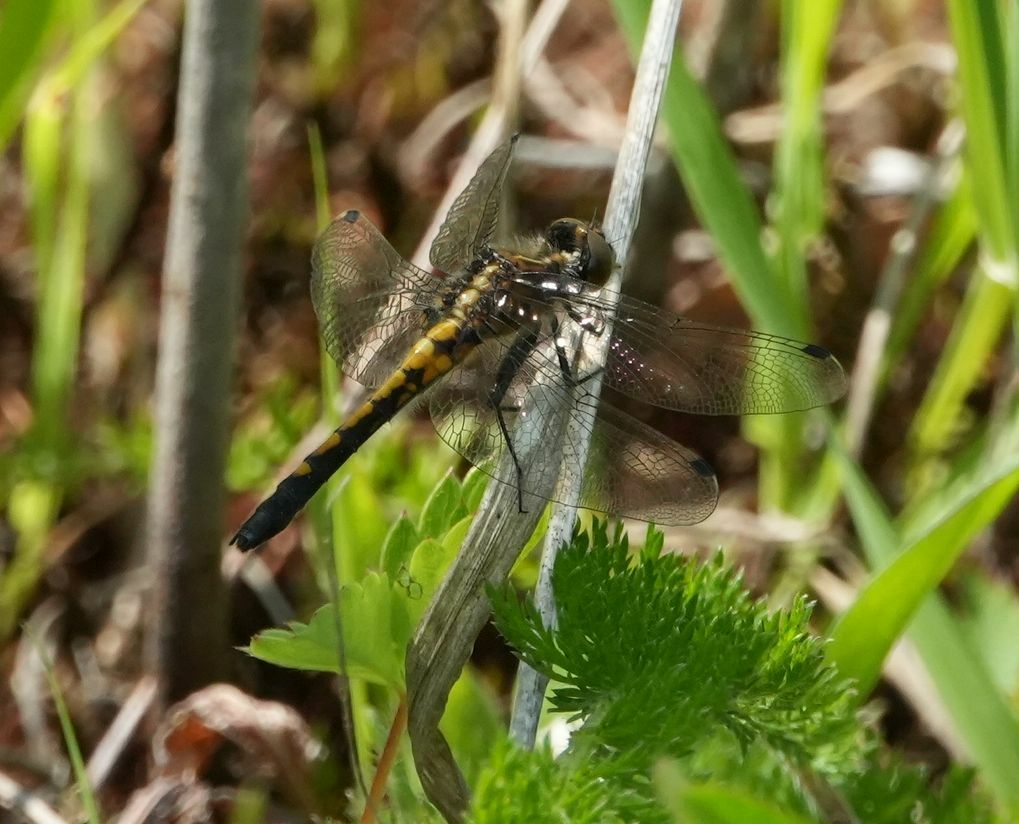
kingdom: Animalia
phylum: Arthropoda
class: Insecta
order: Odonata
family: Libellulidae
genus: Leucorrhinia
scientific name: Leucorrhinia intacta
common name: Dot-tailed whiteface
